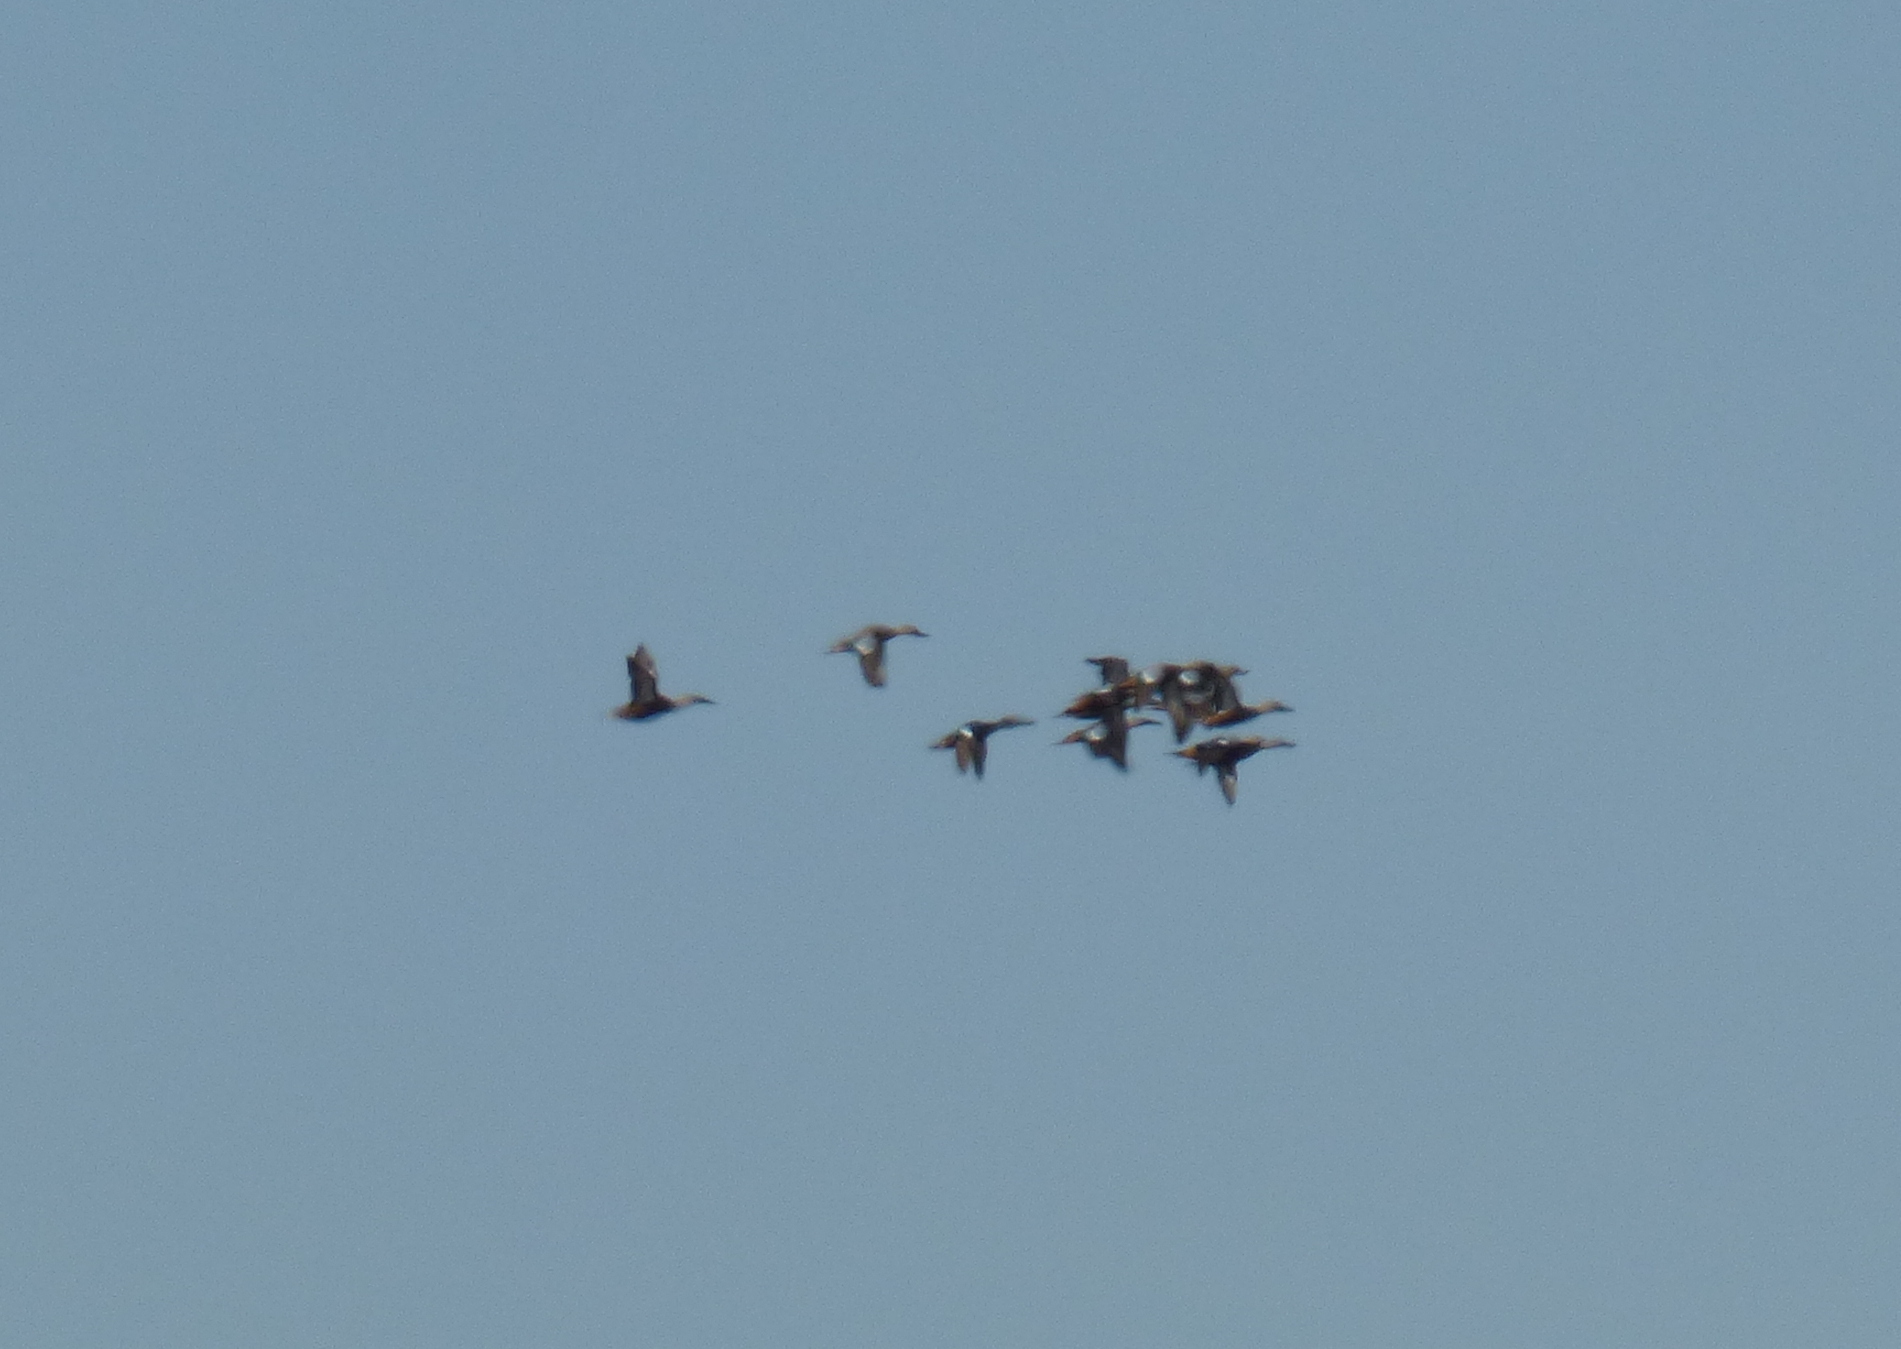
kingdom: Animalia
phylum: Chordata
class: Aves
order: Anseriformes
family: Anatidae
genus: Spatula
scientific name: Spatula platalea
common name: Red shoveler
